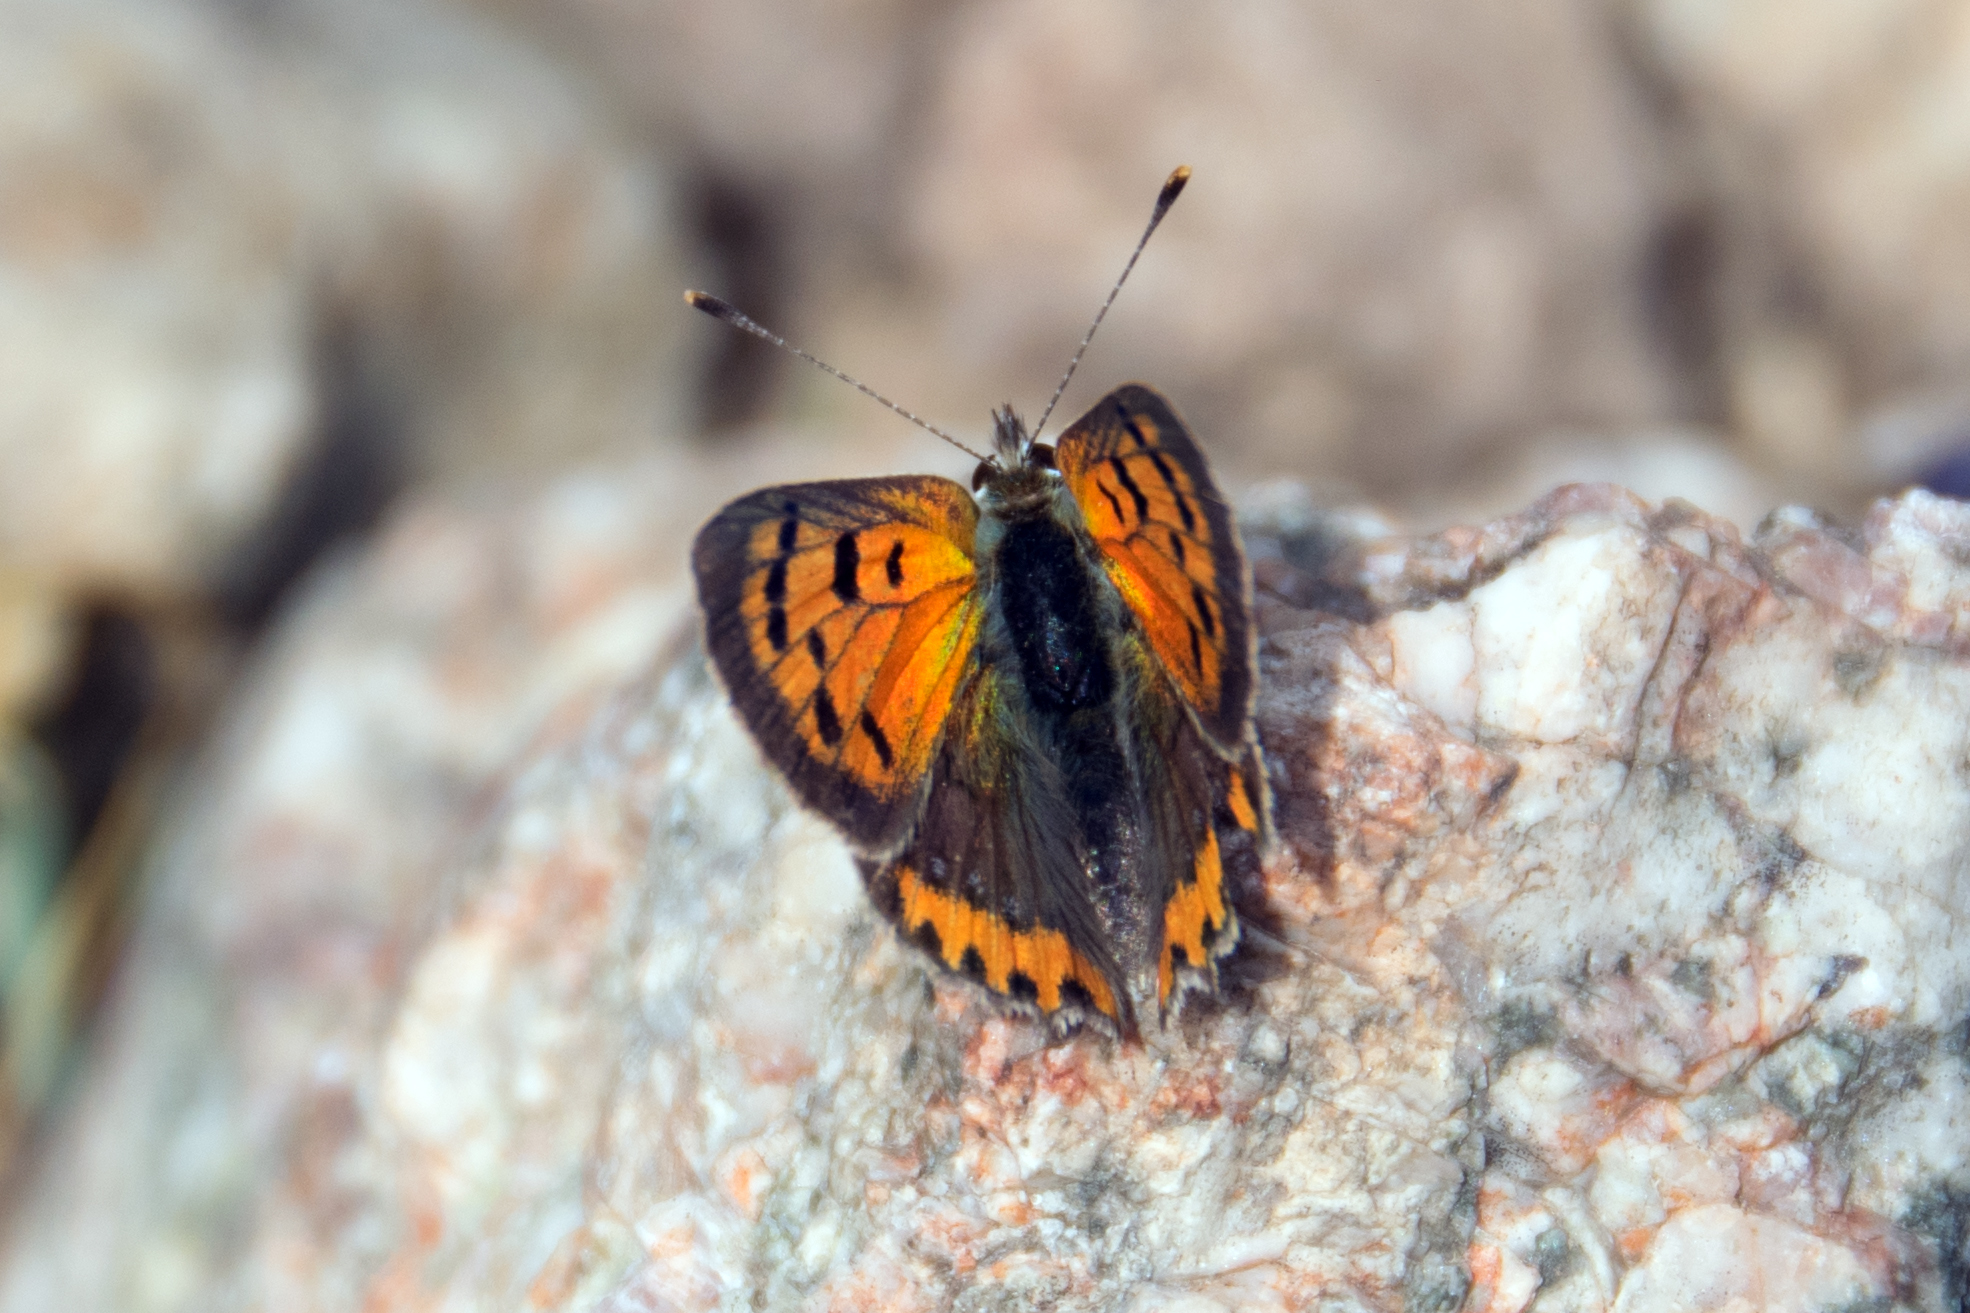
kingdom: Animalia
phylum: Arthropoda
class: Insecta
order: Lepidoptera
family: Lycaenidae
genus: Lycaena
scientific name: Lycaena phlaeas
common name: Small copper
